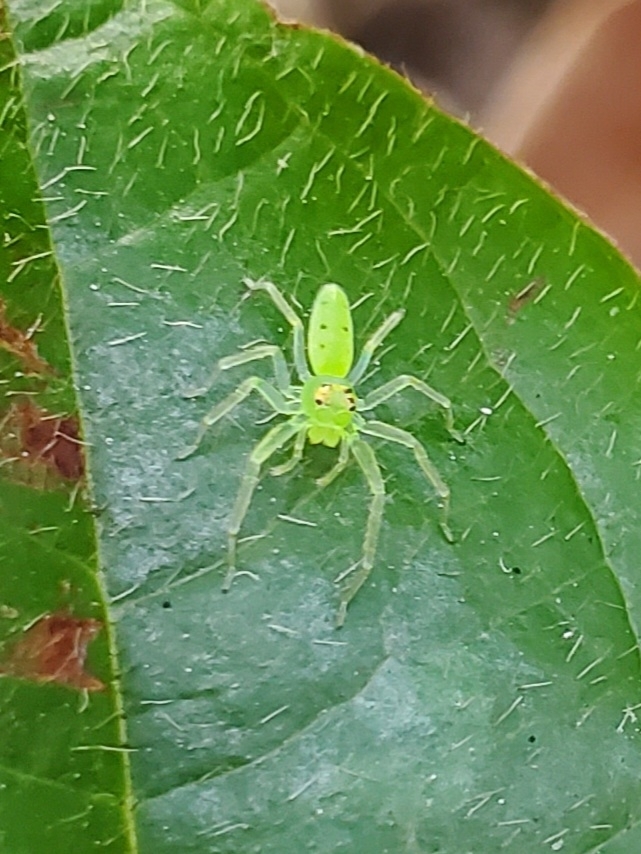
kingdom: Animalia
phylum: Arthropoda
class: Arachnida
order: Araneae
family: Salticidae
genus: Lyssomanes
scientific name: Lyssomanes viridis
